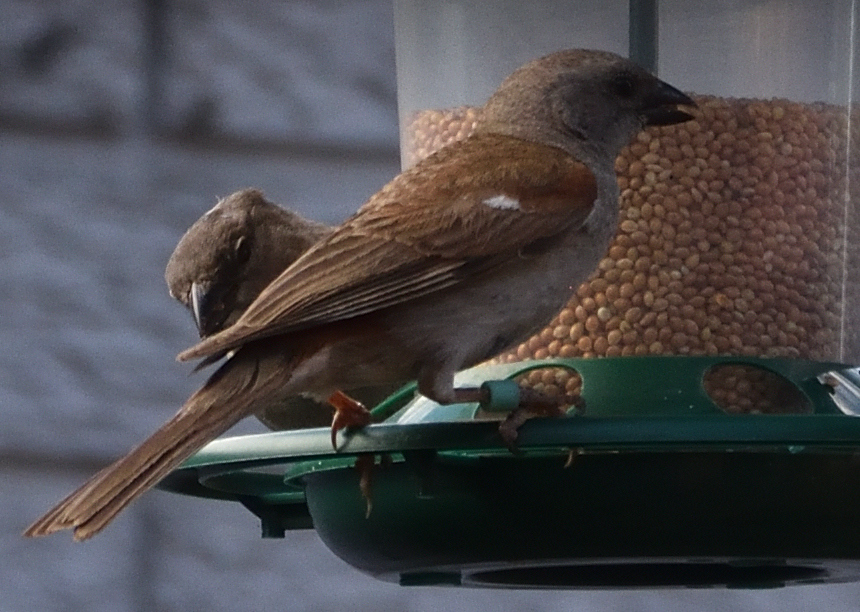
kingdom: Animalia
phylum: Chordata
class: Aves
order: Passeriformes
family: Passeridae
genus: Passer
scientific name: Passer diffusus
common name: Southern grey-headed sparrow
